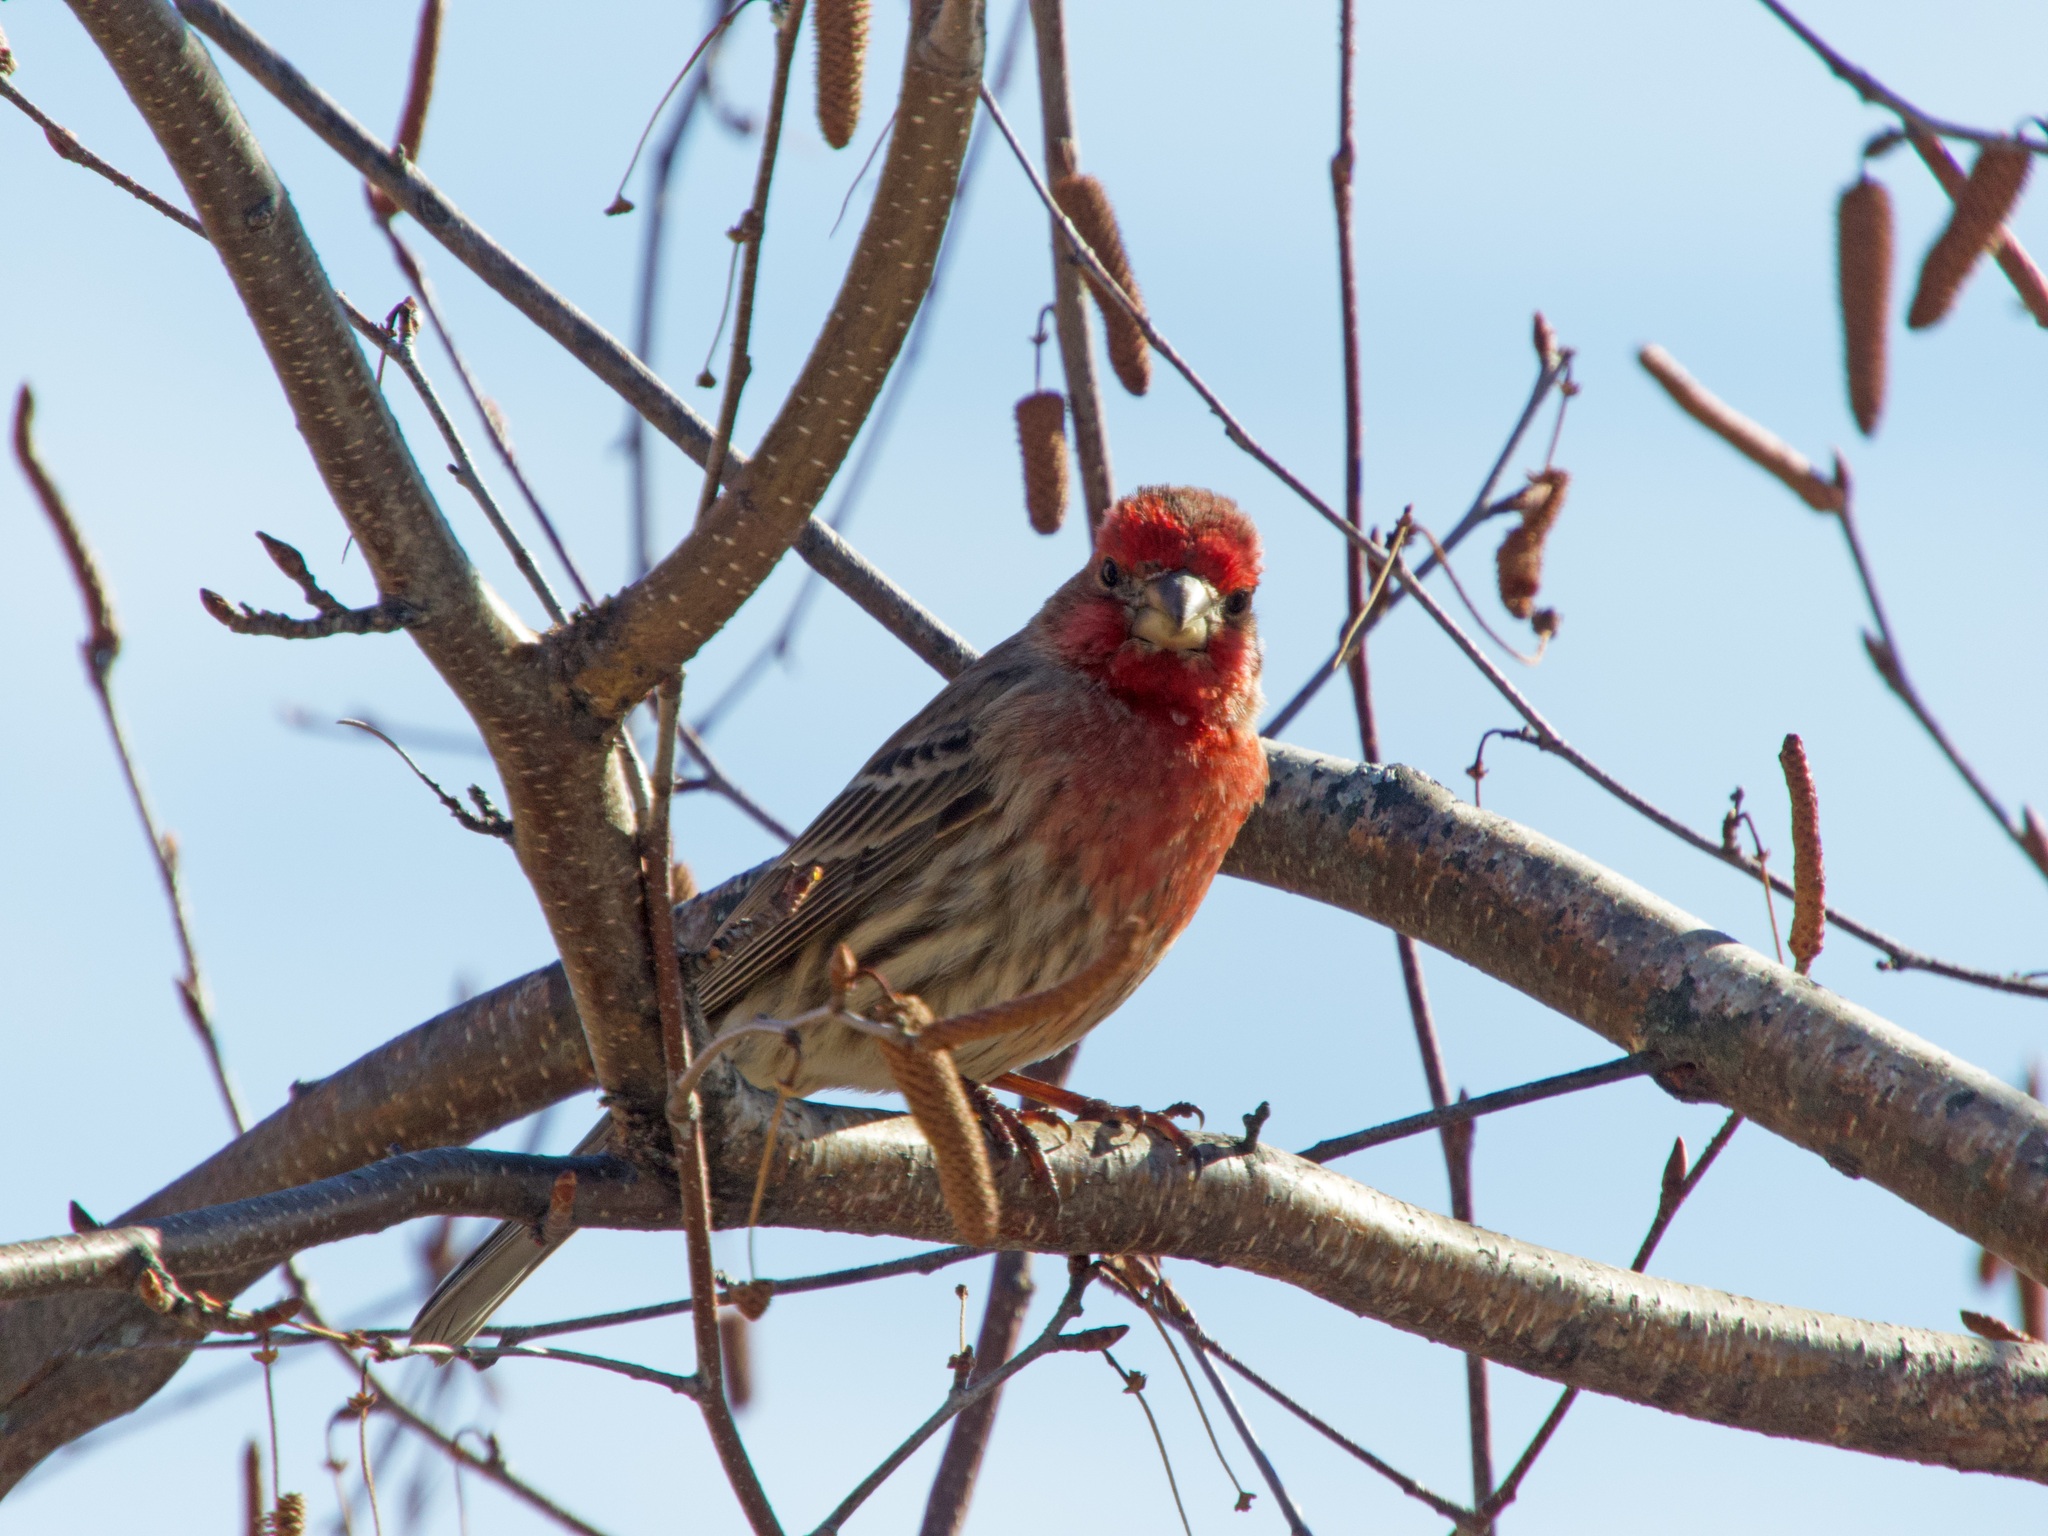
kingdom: Animalia
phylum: Chordata
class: Aves
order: Passeriformes
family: Fringillidae
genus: Haemorhous
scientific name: Haemorhous mexicanus
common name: House finch
